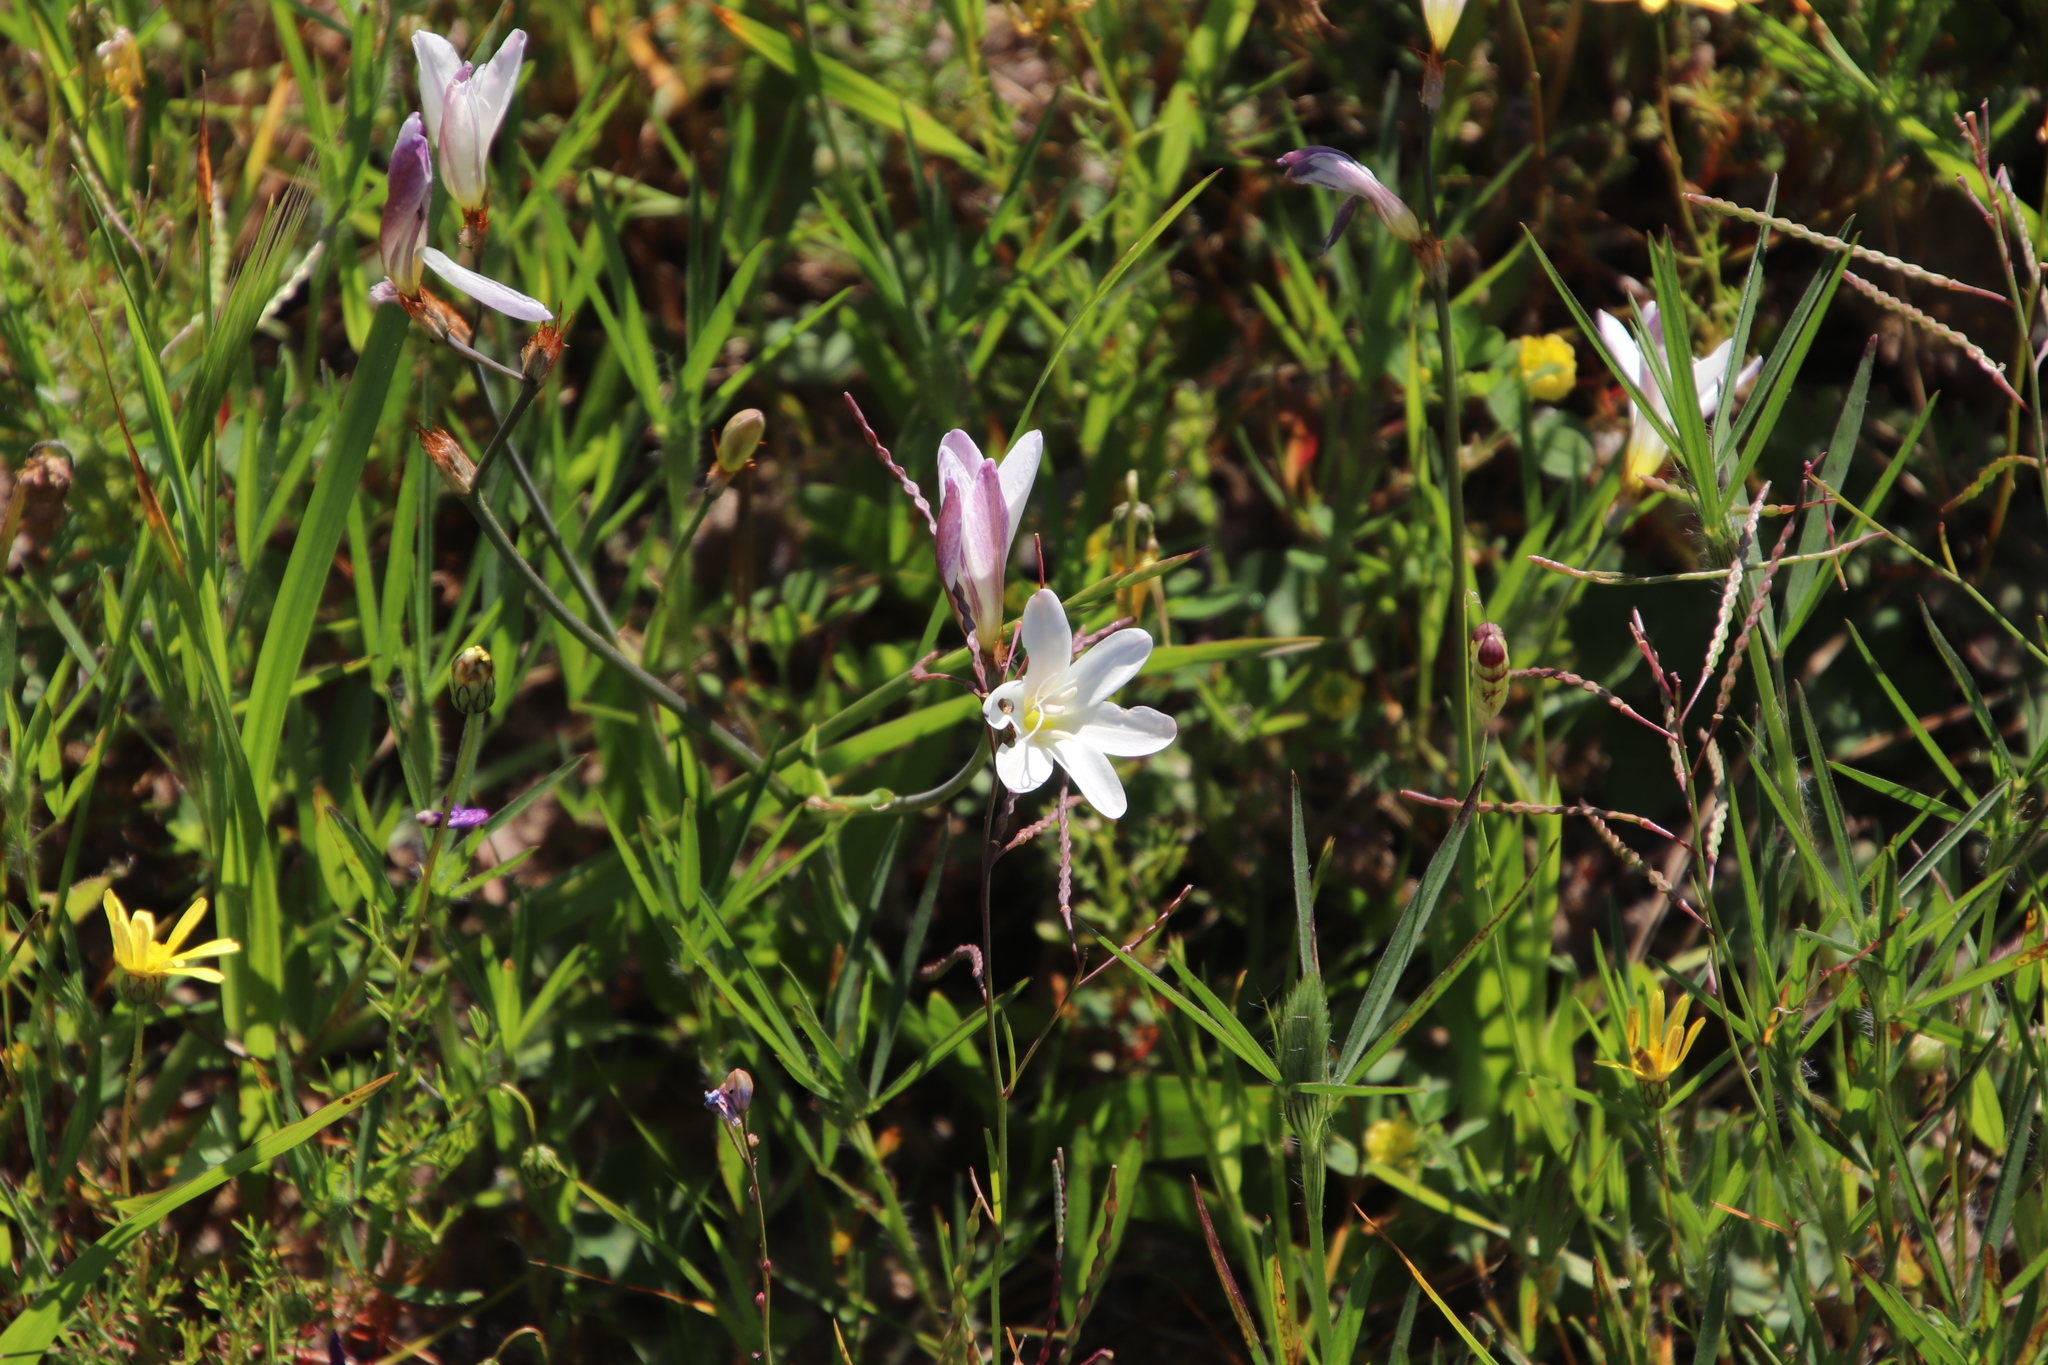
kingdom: Plantae
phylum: Tracheophyta
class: Liliopsida
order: Asparagales
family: Iridaceae
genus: Sparaxis
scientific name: Sparaxis bulbifera
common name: Harlequin-flower
